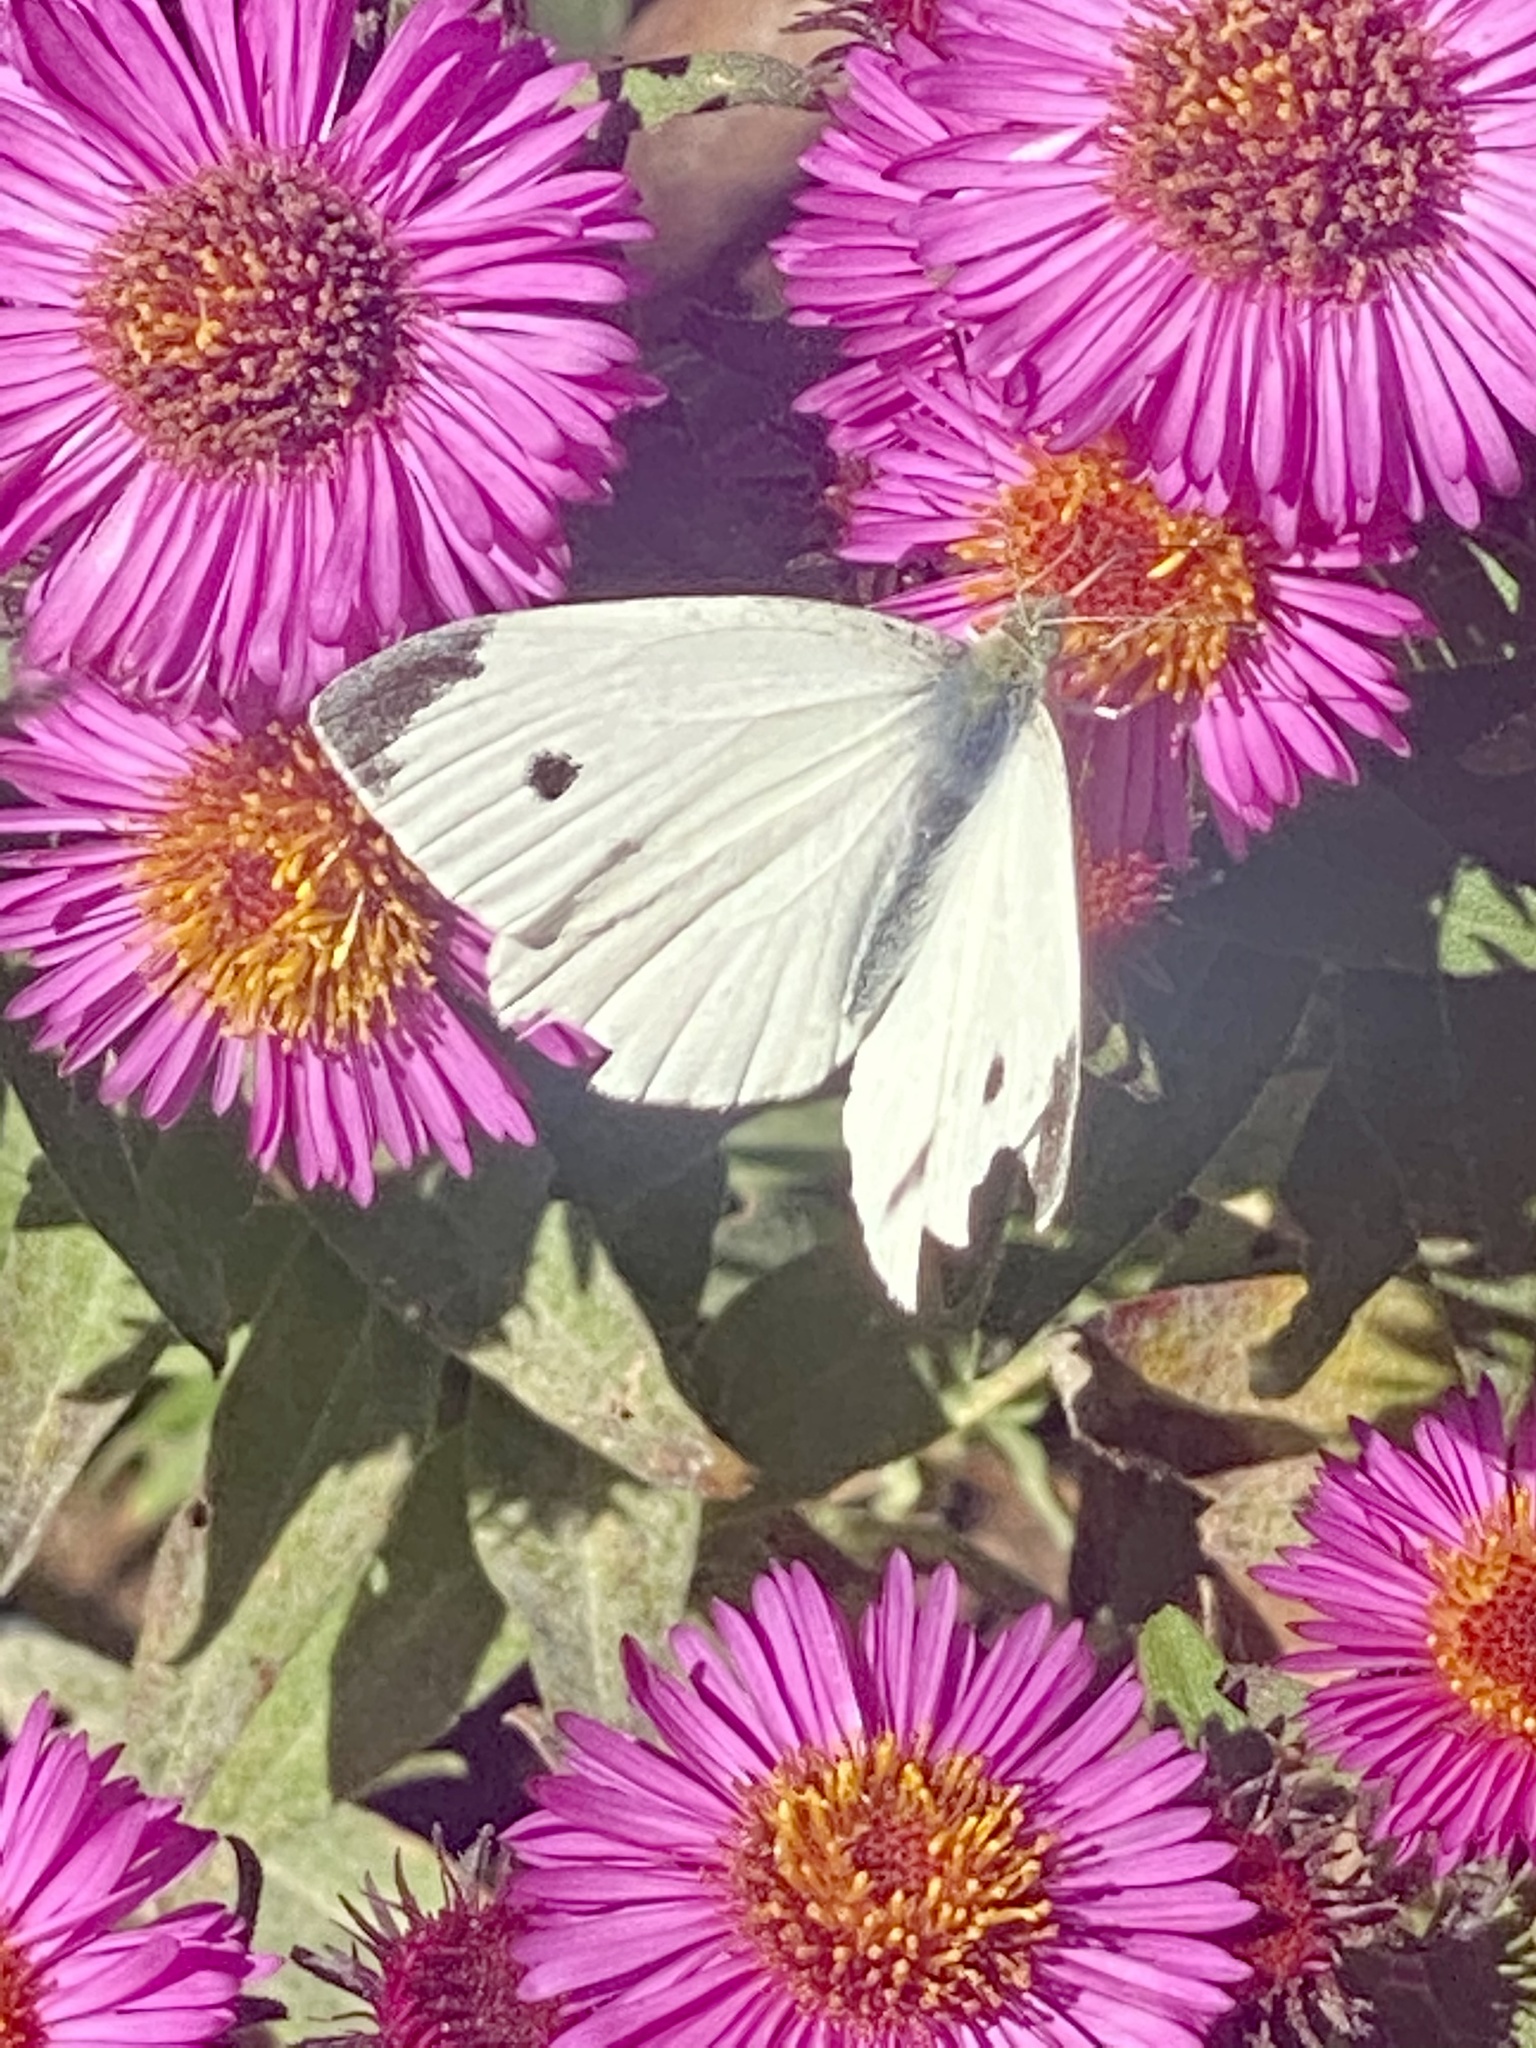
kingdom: Animalia
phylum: Arthropoda
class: Insecta
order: Lepidoptera
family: Pieridae
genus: Pieris
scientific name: Pieris rapae
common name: Small white
